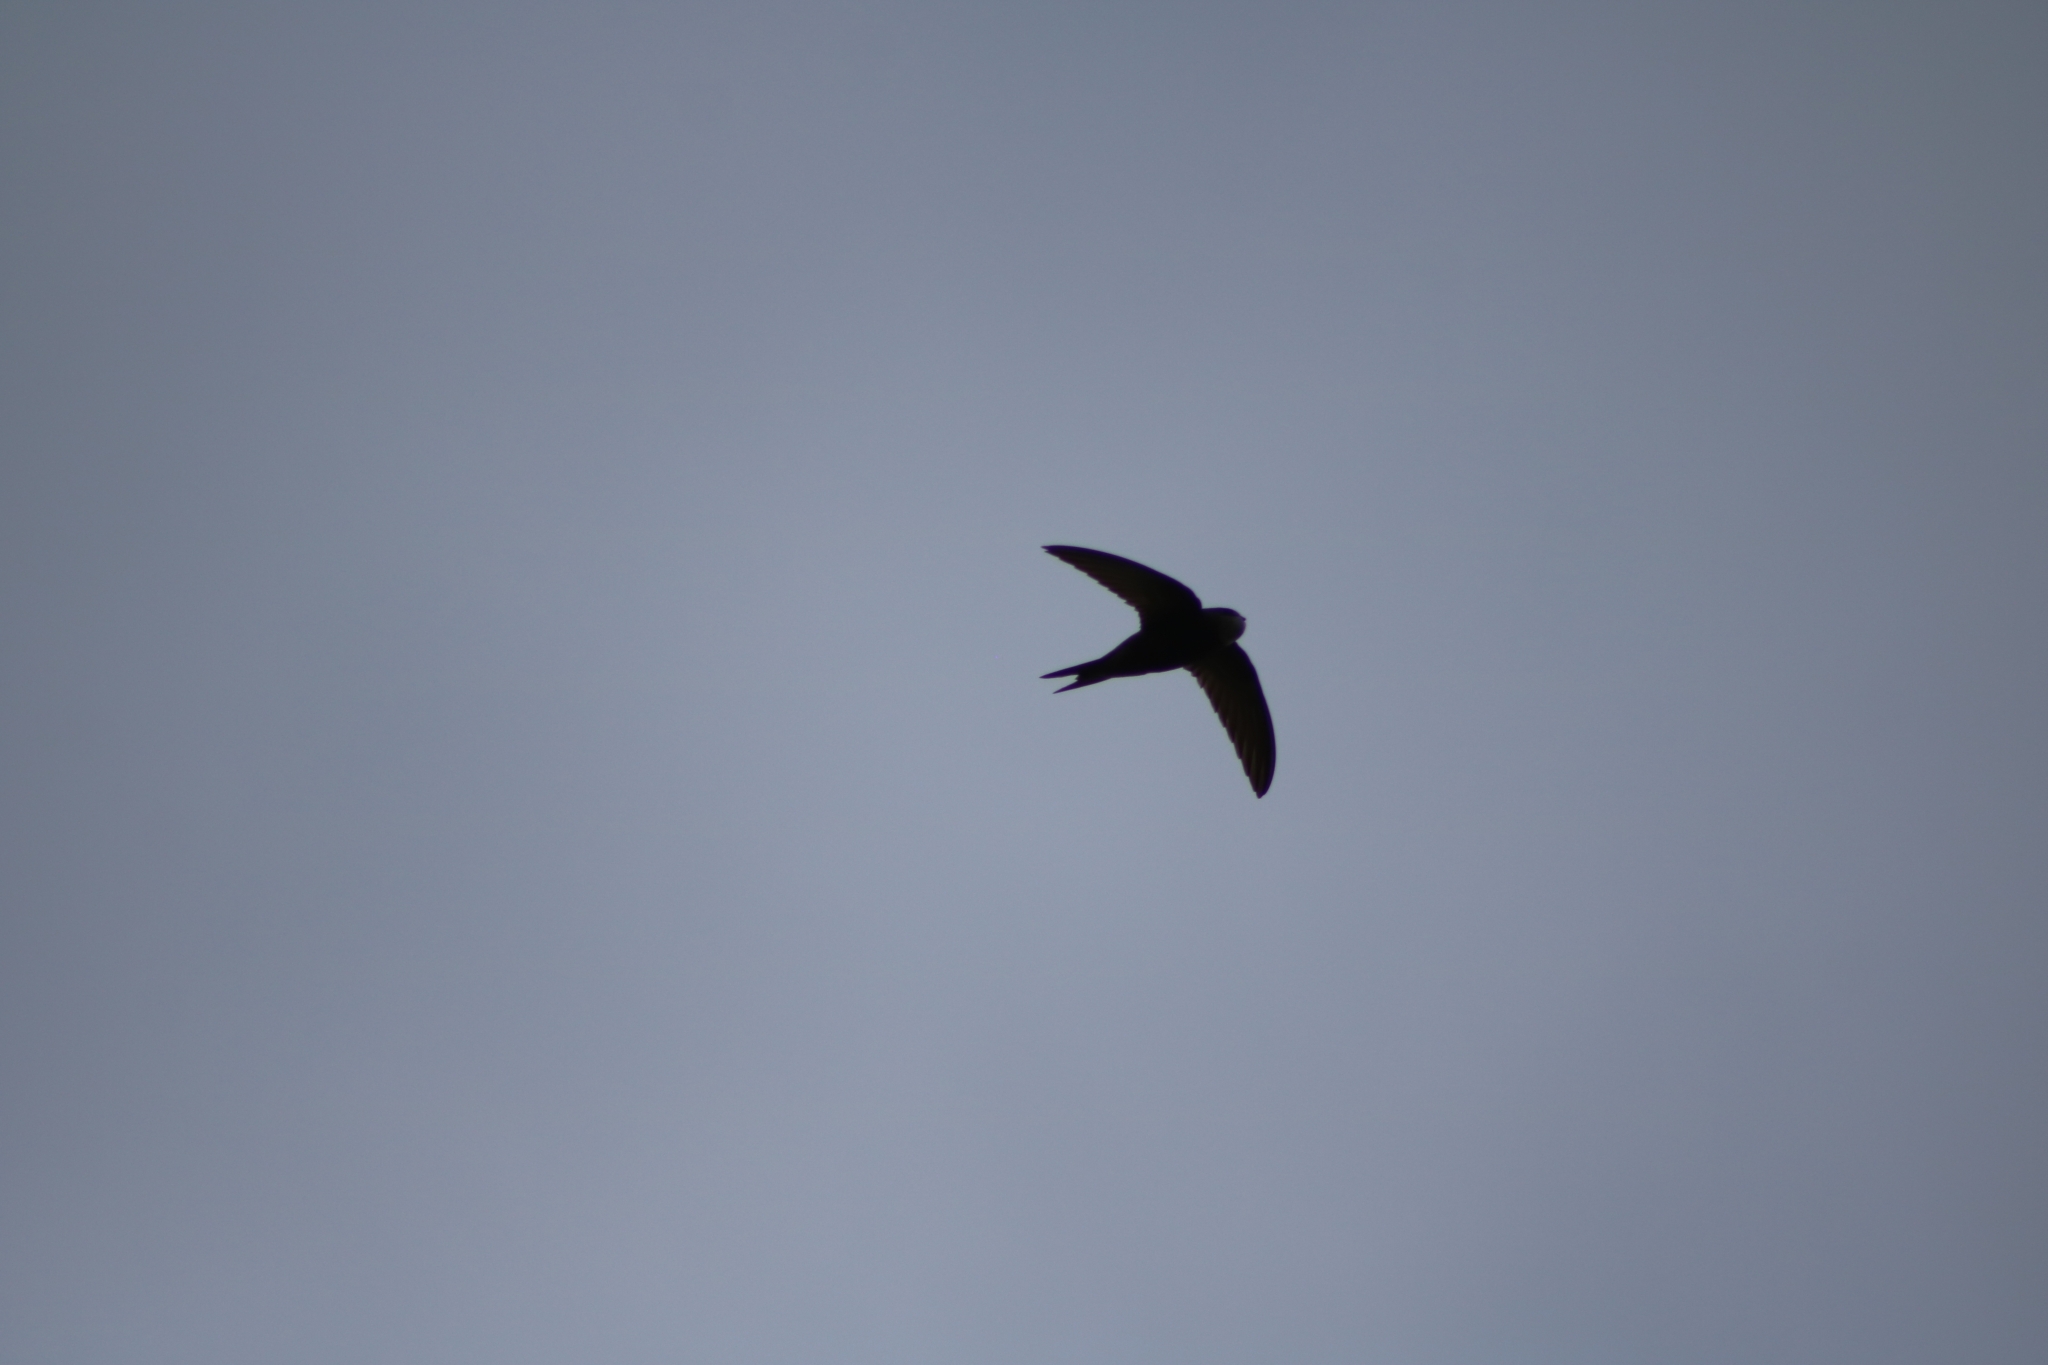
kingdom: Animalia
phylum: Chordata
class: Aves
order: Apodiformes
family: Apodidae
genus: Apus
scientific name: Apus apus
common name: Common swift
